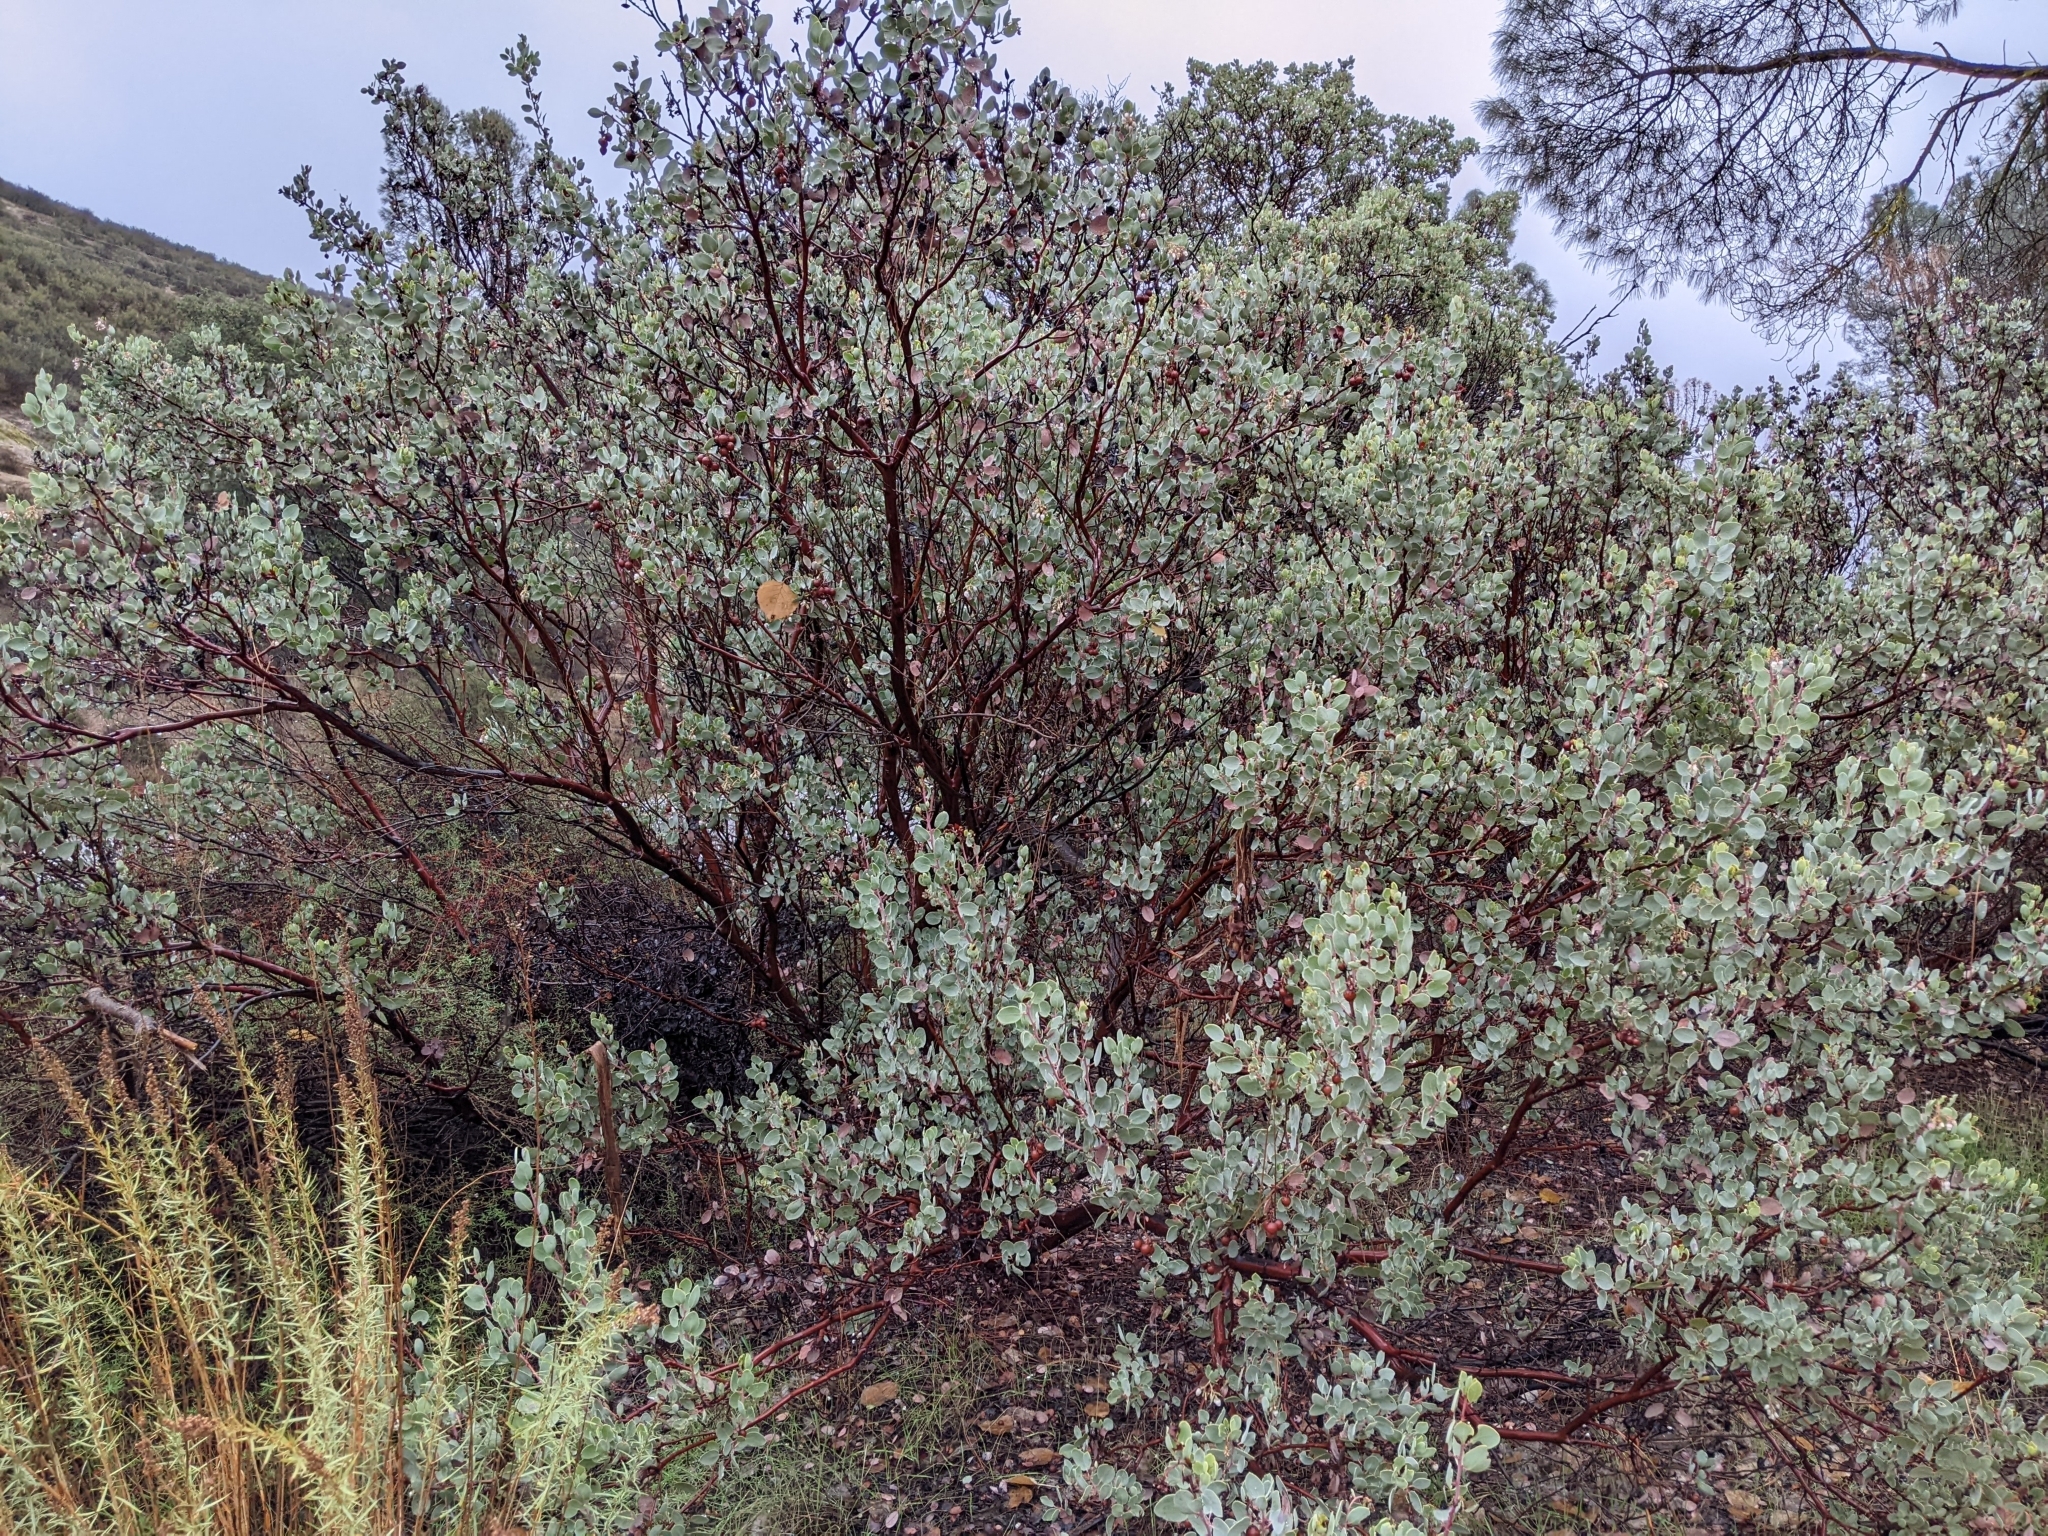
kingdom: Plantae
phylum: Tracheophyta
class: Magnoliopsida
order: Ericales
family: Ericaceae
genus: Arctostaphylos
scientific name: Arctostaphylos glauca
